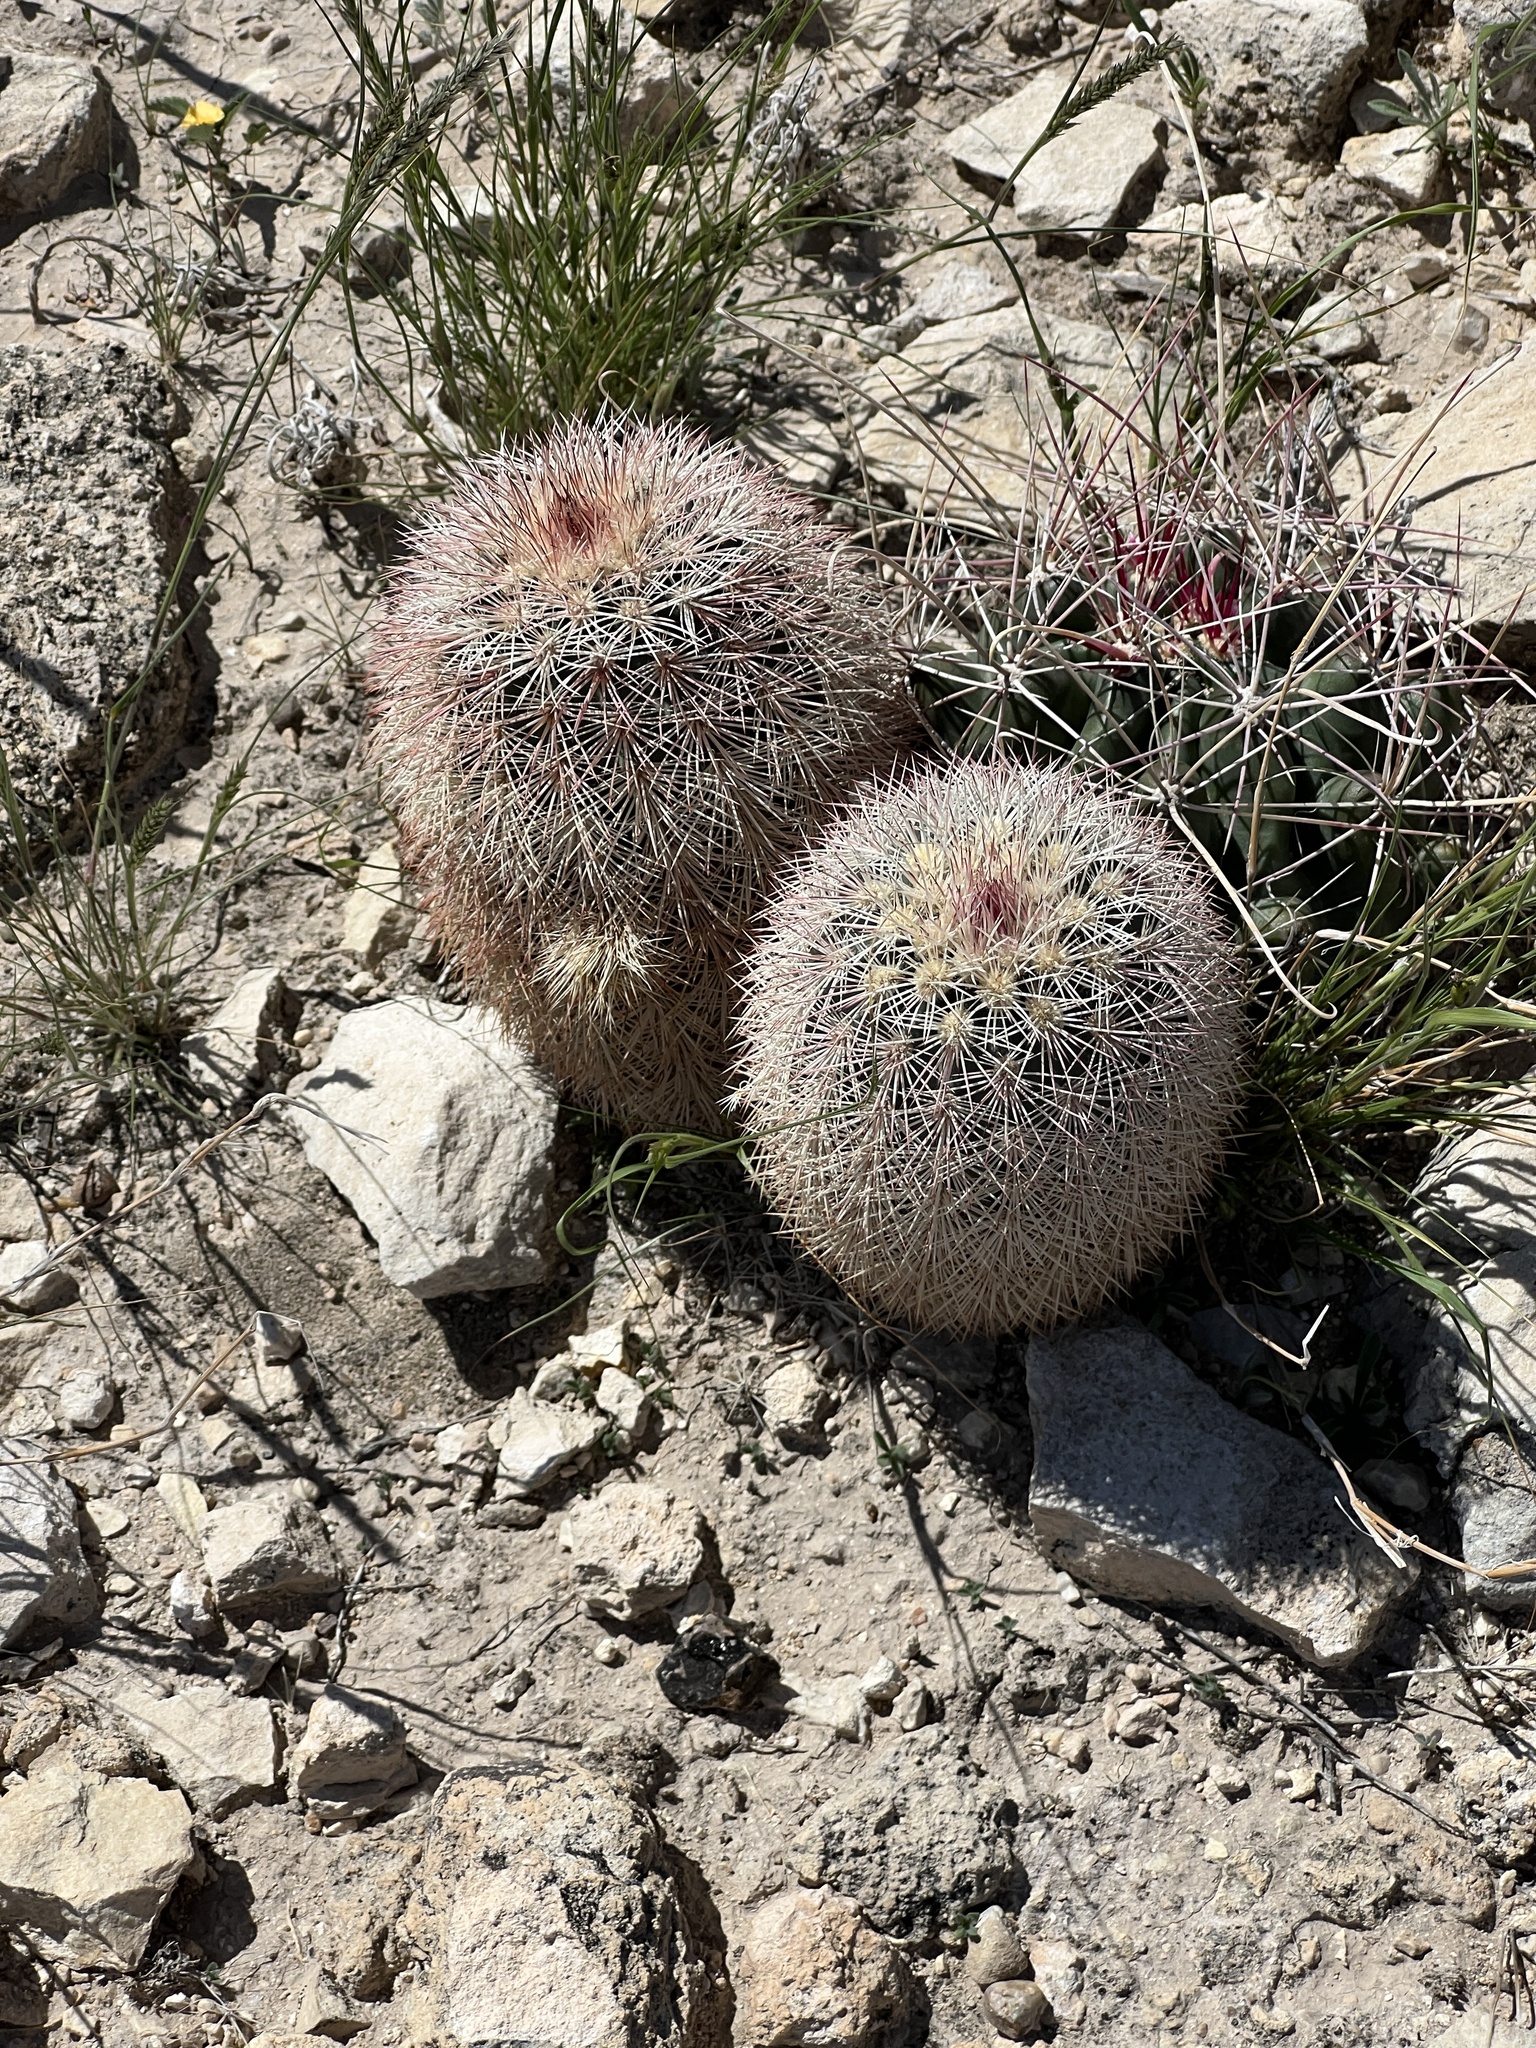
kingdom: Plantae
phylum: Tracheophyta
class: Magnoliopsida
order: Caryophyllales
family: Cactaceae
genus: Echinocereus
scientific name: Echinocereus dasyacanthus
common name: Spiny hedgehog cactus
